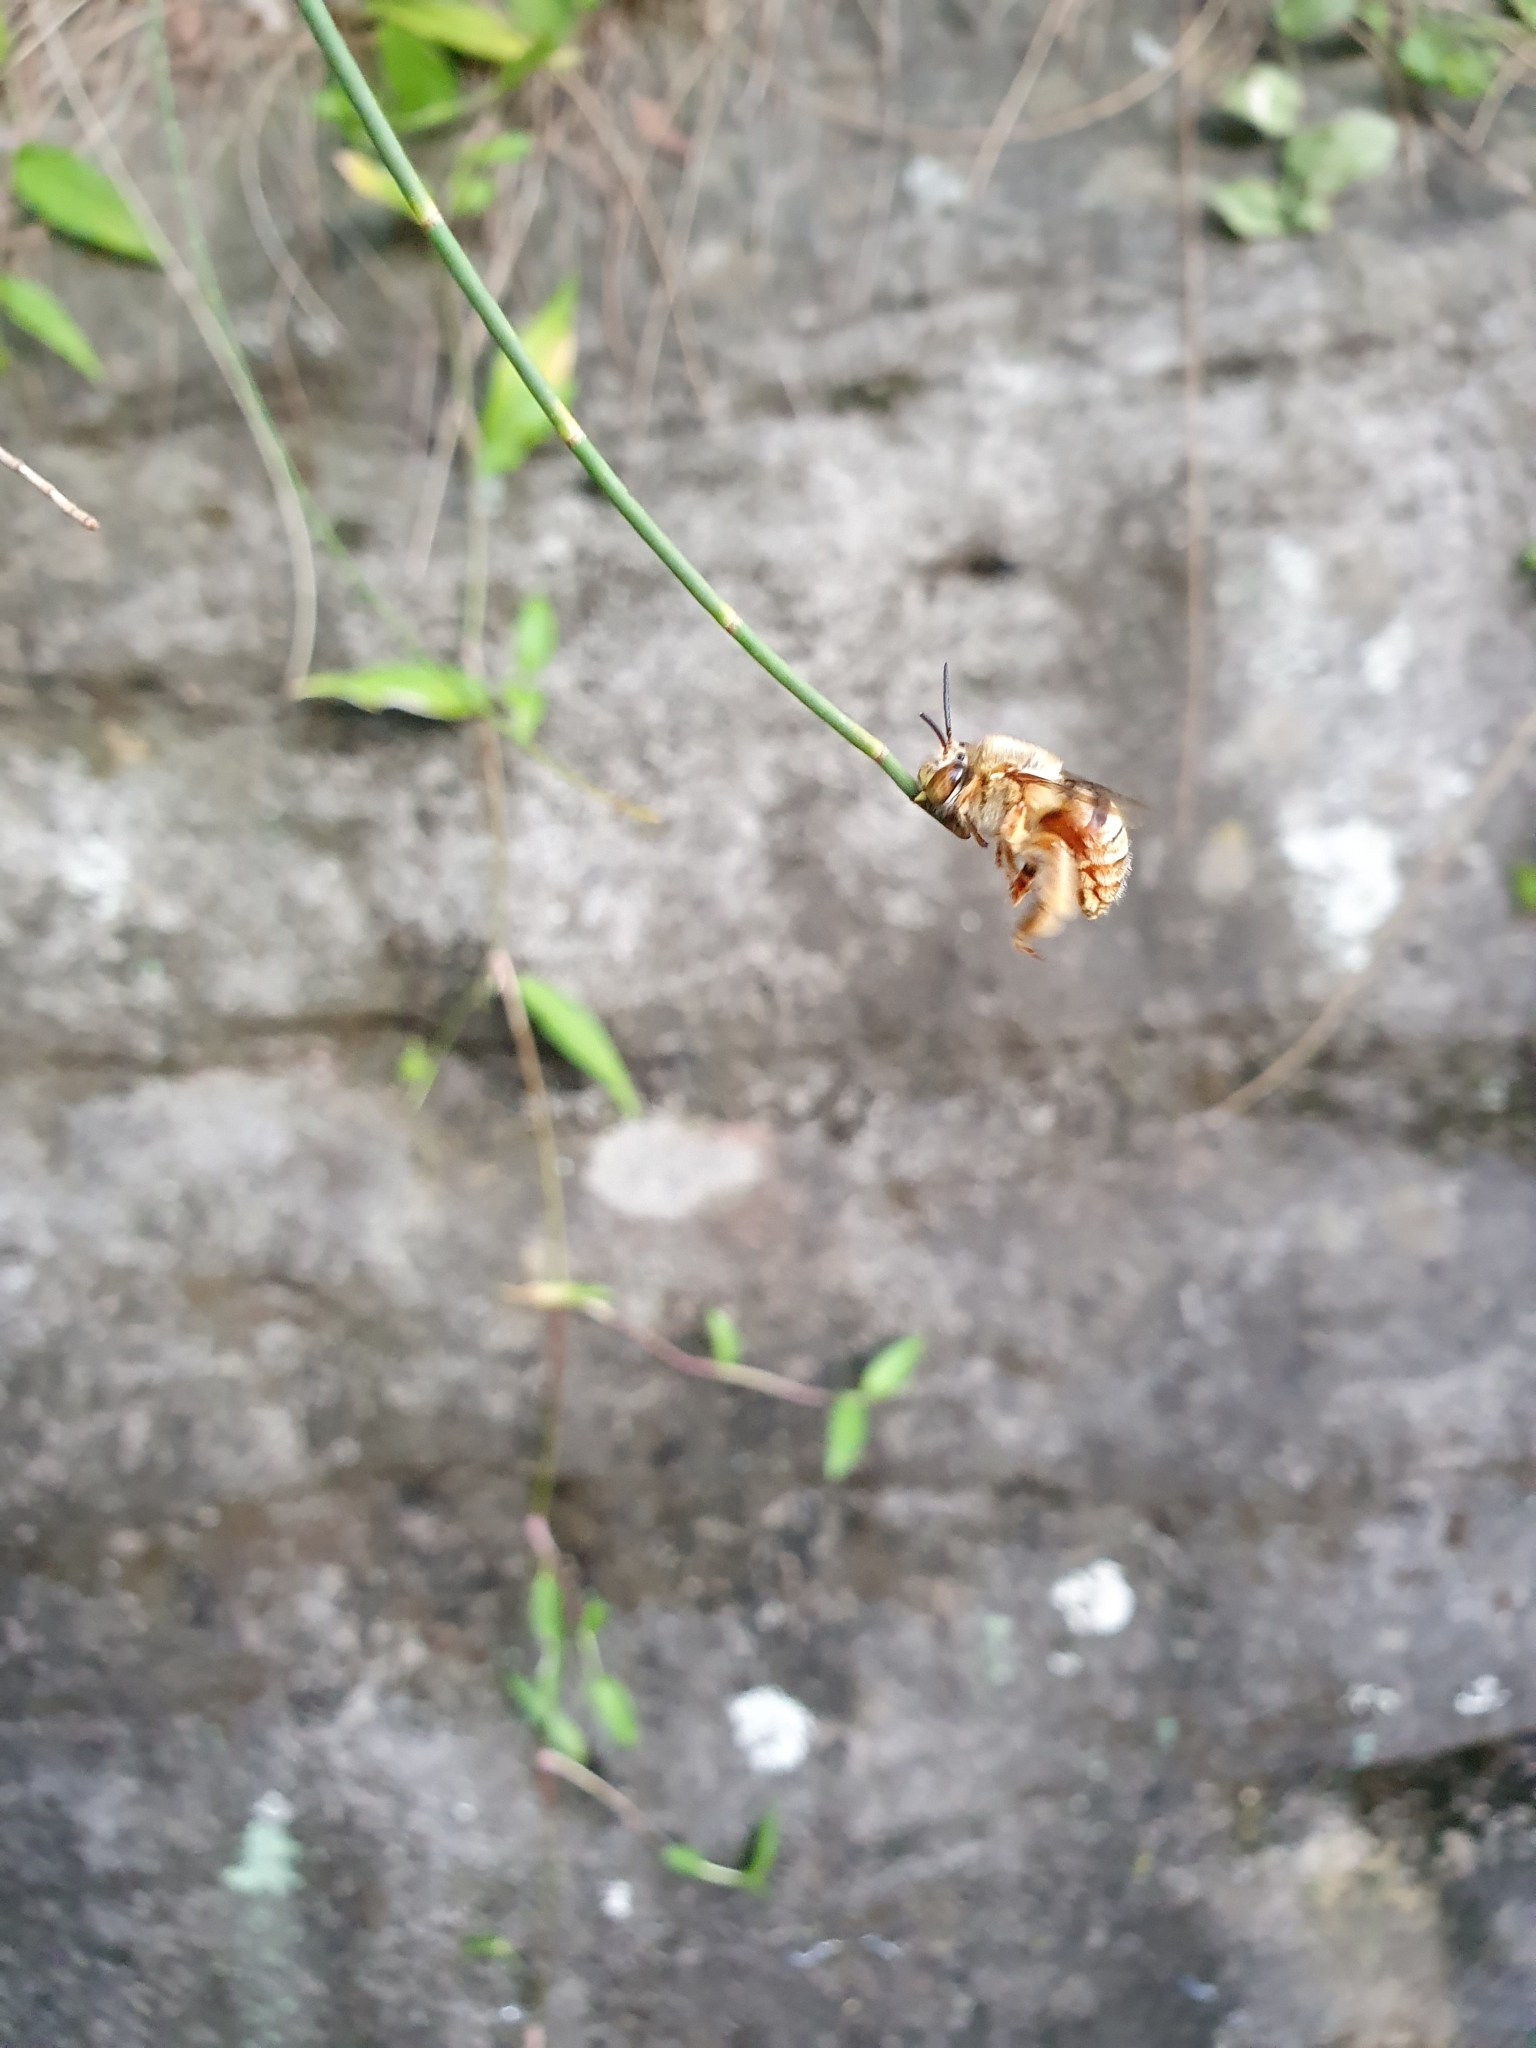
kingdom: Animalia
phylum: Arthropoda
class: Insecta
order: Hymenoptera
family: Apidae
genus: Amegilla
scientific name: Amegilla bombiformis
